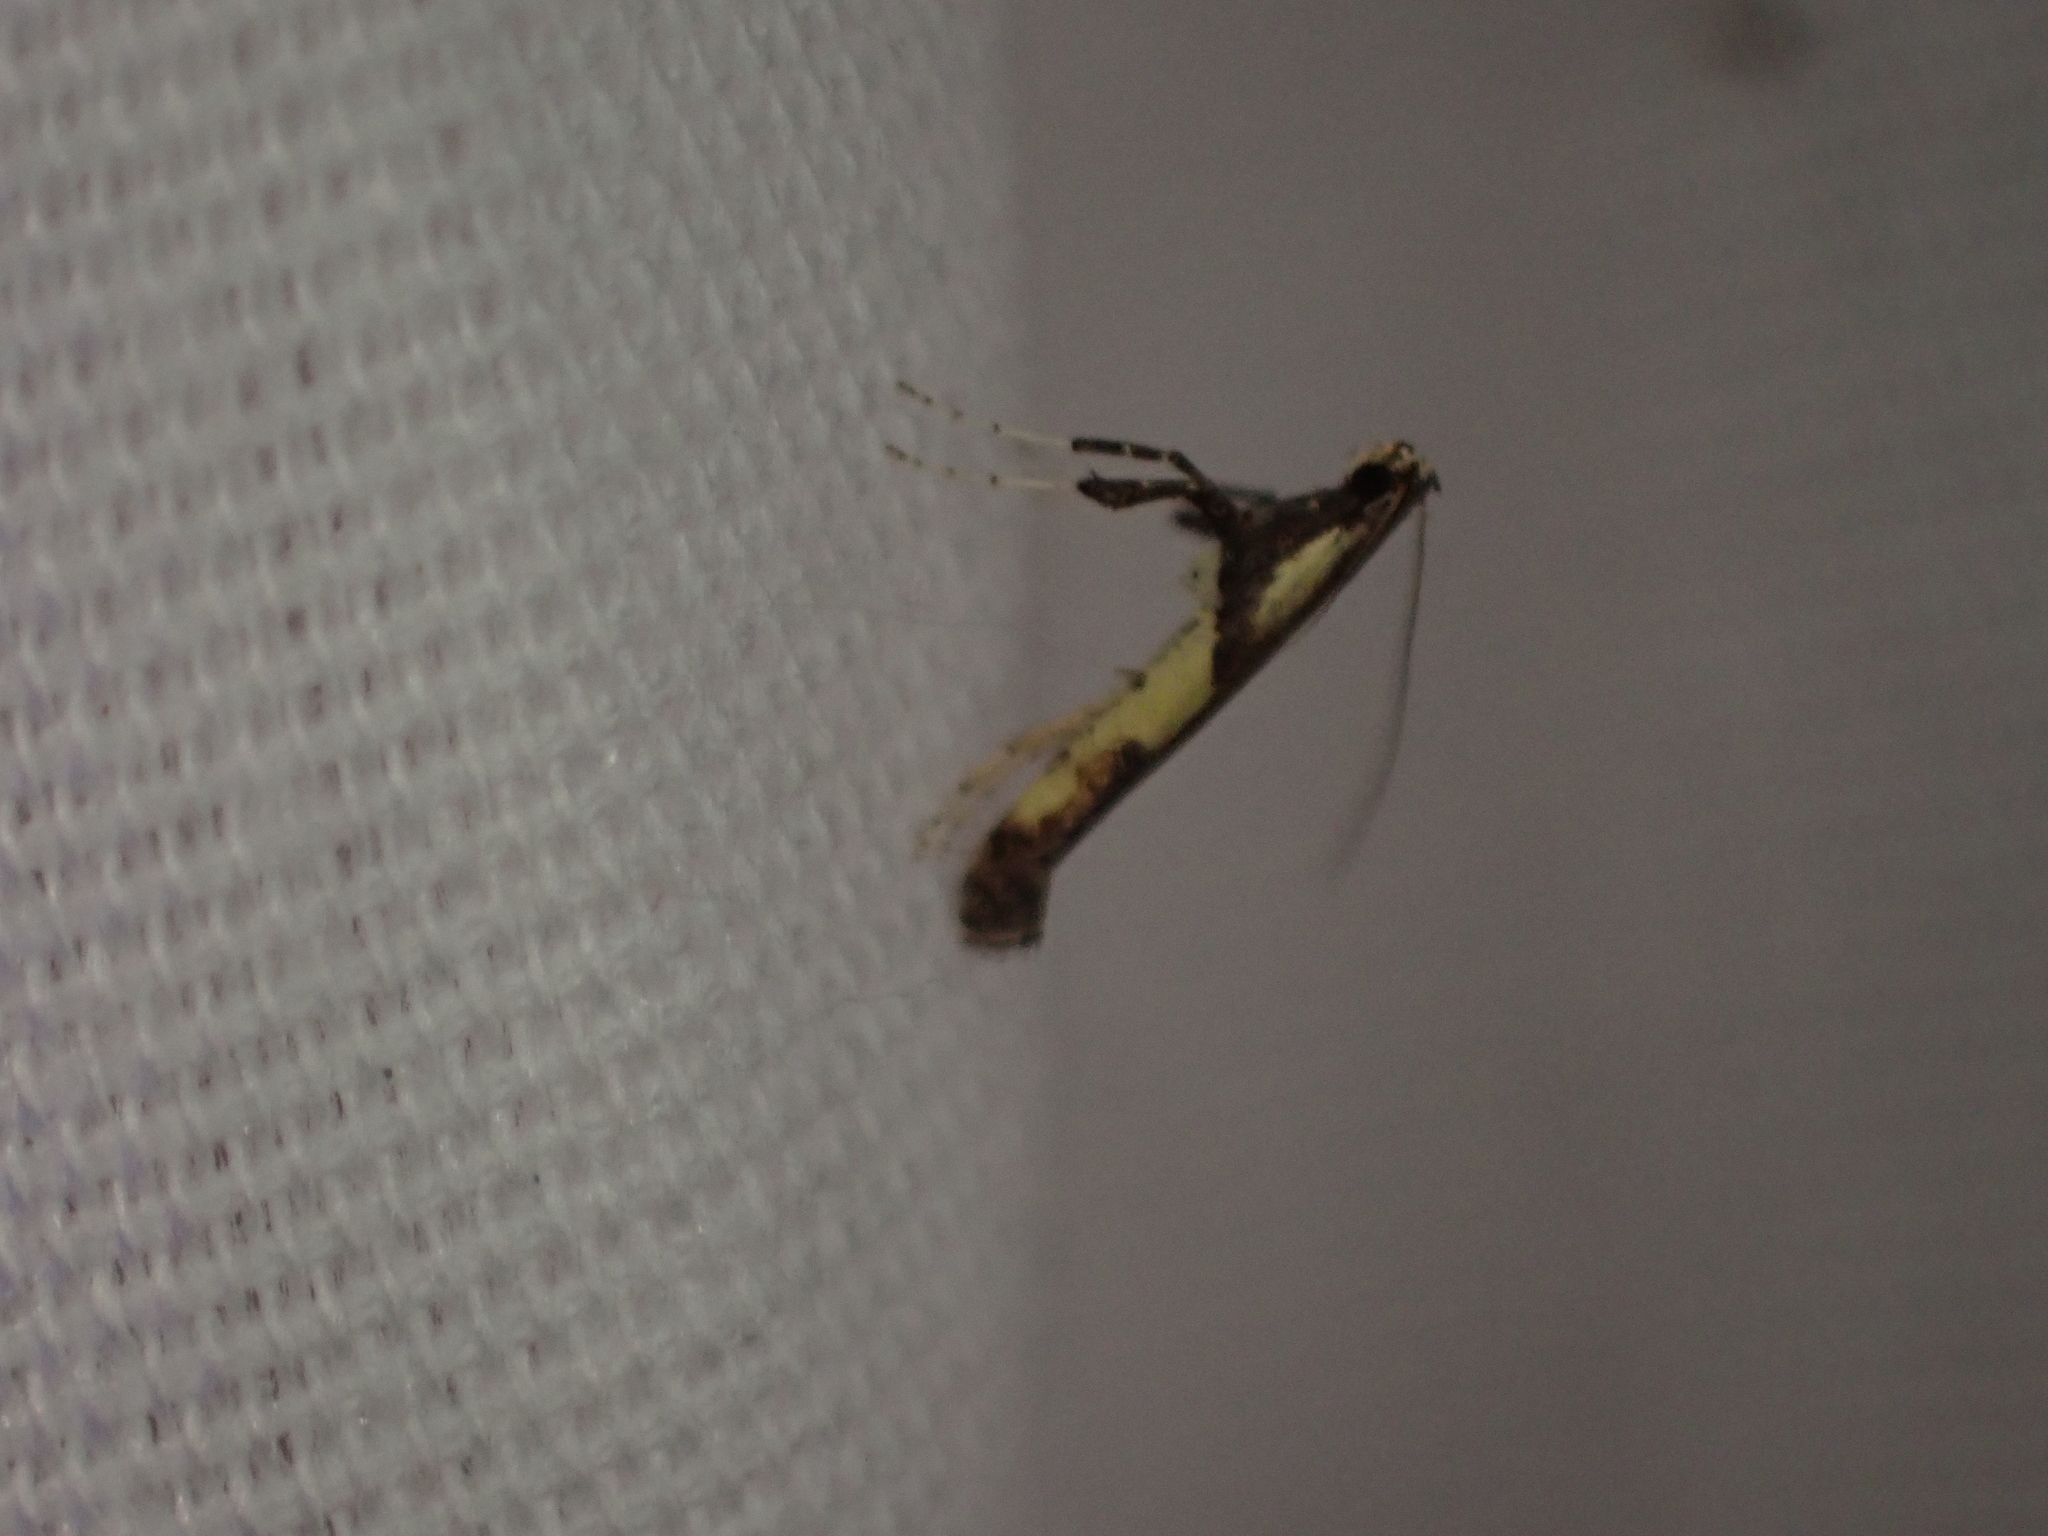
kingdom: Animalia
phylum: Arthropoda
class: Insecta
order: Lepidoptera
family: Gracillariidae
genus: Caloptilia
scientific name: Caloptilia blandella
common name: Walnut caloptilia moth
